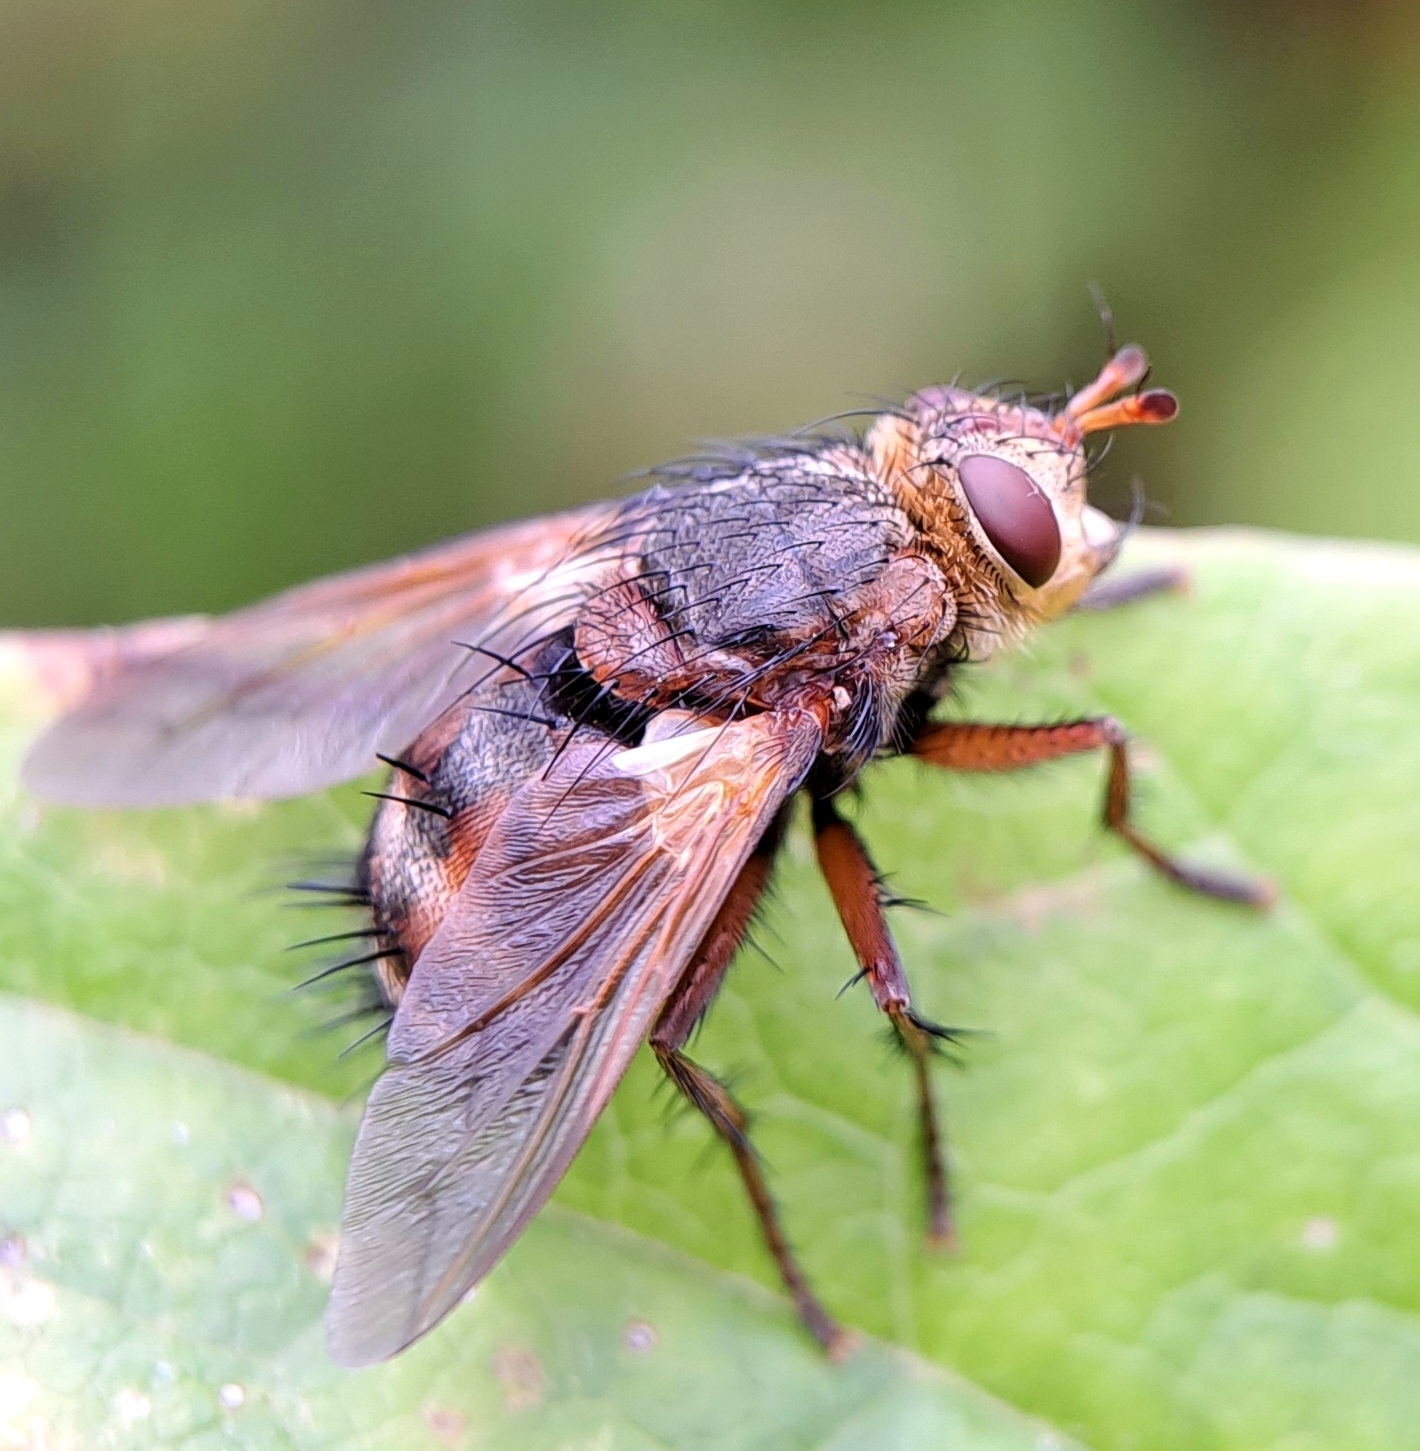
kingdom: Animalia
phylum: Arthropoda
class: Insecta
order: Diptera
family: Tachinidae
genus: Tachina
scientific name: Tachina fera
